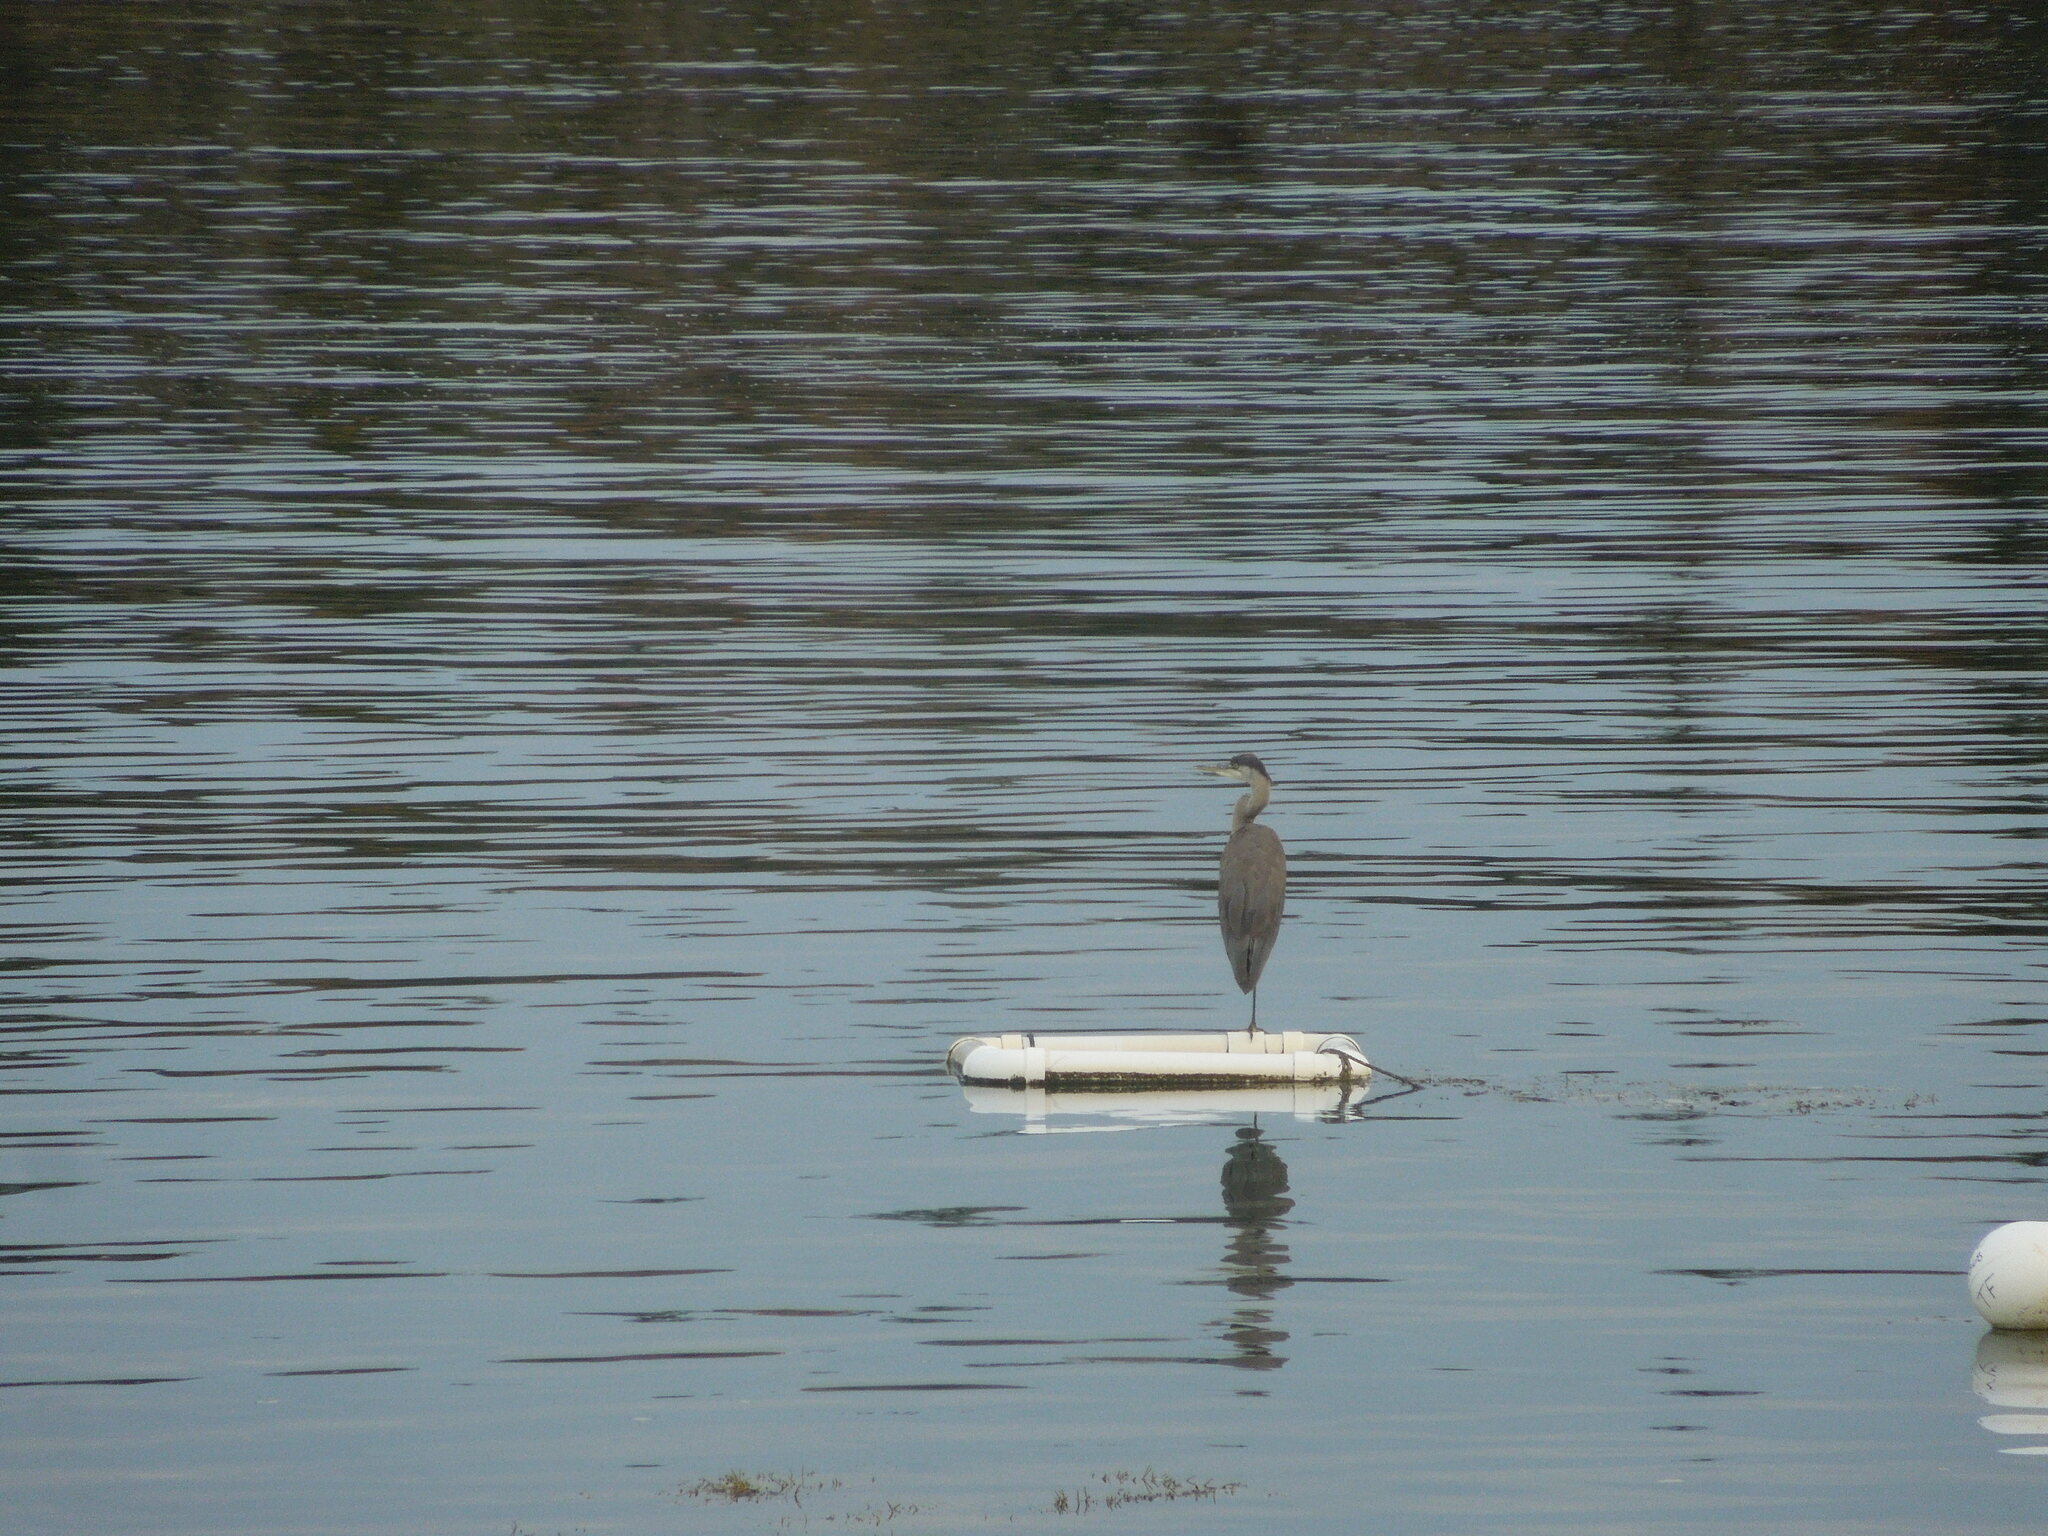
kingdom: Animalia
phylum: Chordata
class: Aves
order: Pelecaniformes
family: Ardeidae
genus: Ardea
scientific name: Ardea herodias
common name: Great blue heron
